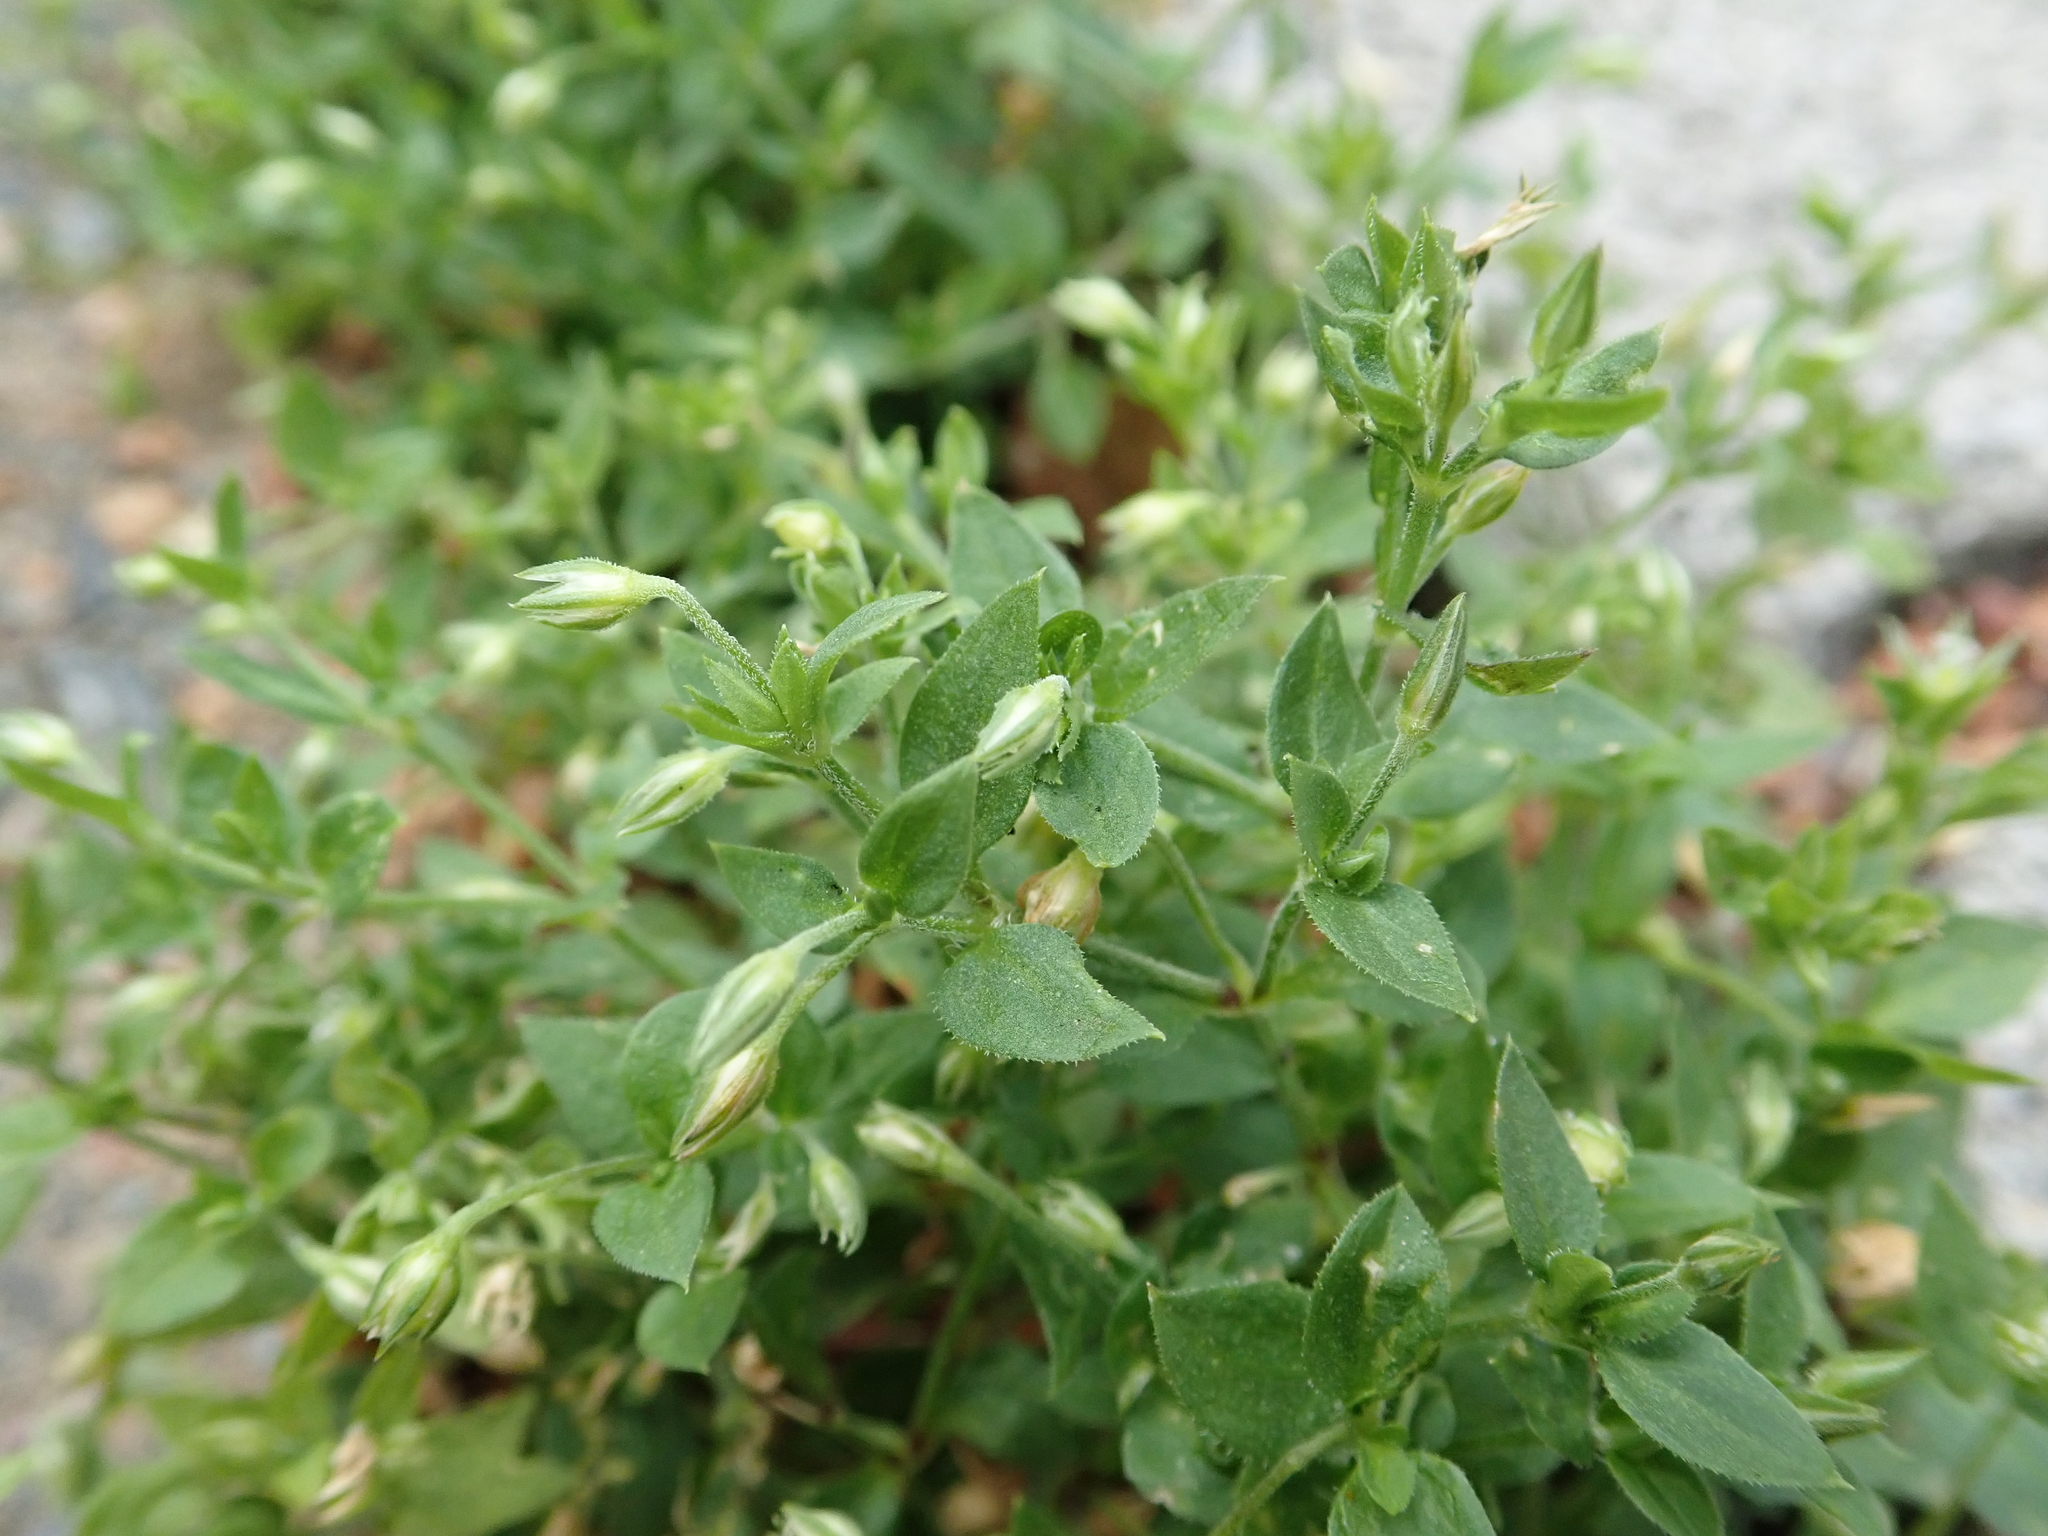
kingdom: Plantae
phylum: Tracheophyta
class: Magnoliopsida
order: Caryophyllales
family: Caryophyllaceae
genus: Moehringia
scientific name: Moehringia trinervia
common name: Three-nerved sandwort
